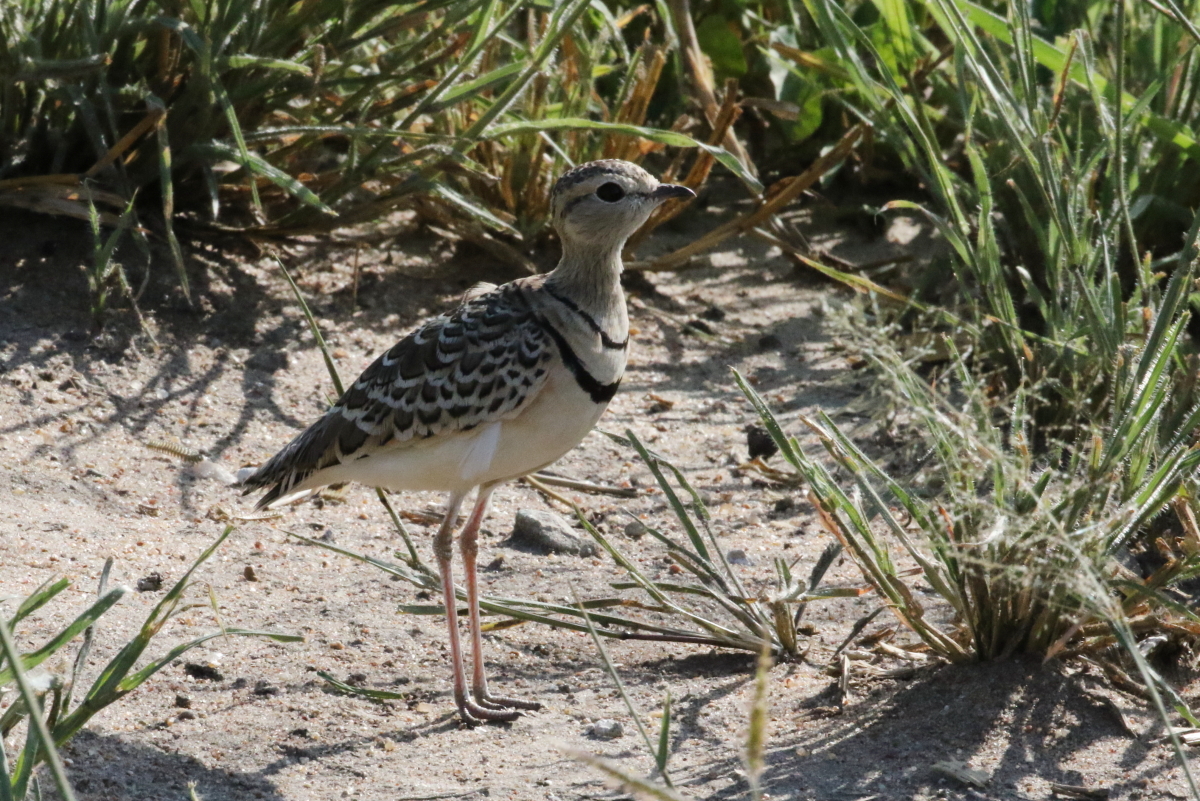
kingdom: Animalia
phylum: Chordata
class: Aves
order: Charadriiformes
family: Glareolidae
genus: Rhinoptilus
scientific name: Rhinoptilus africanus
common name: Double-banded courser
